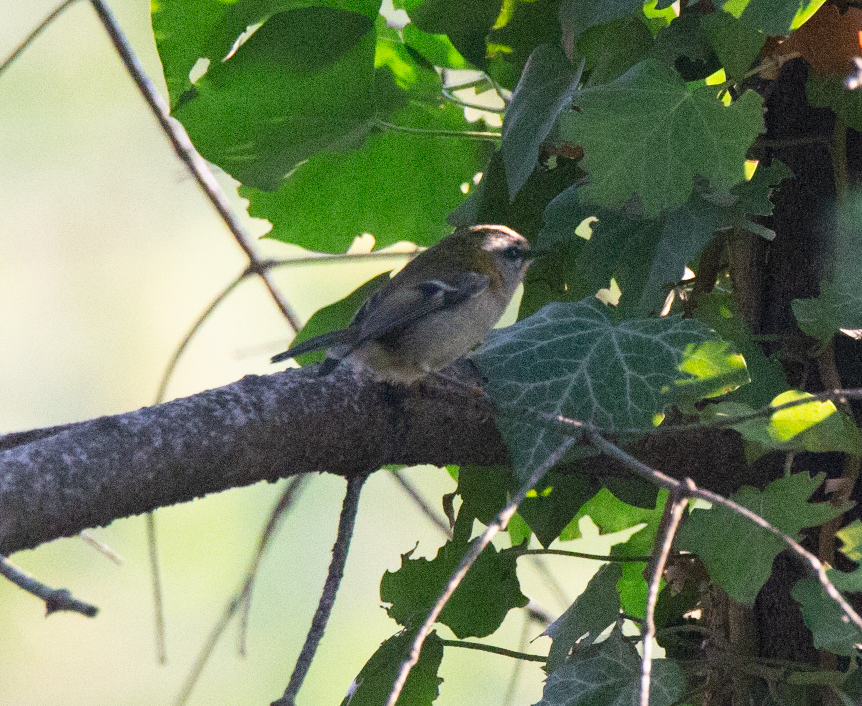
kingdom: Animalia
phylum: Chordata
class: Aves
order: Passeriformes
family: Regulidae
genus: Regulus
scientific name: Regulus regulus
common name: Goldcrest
